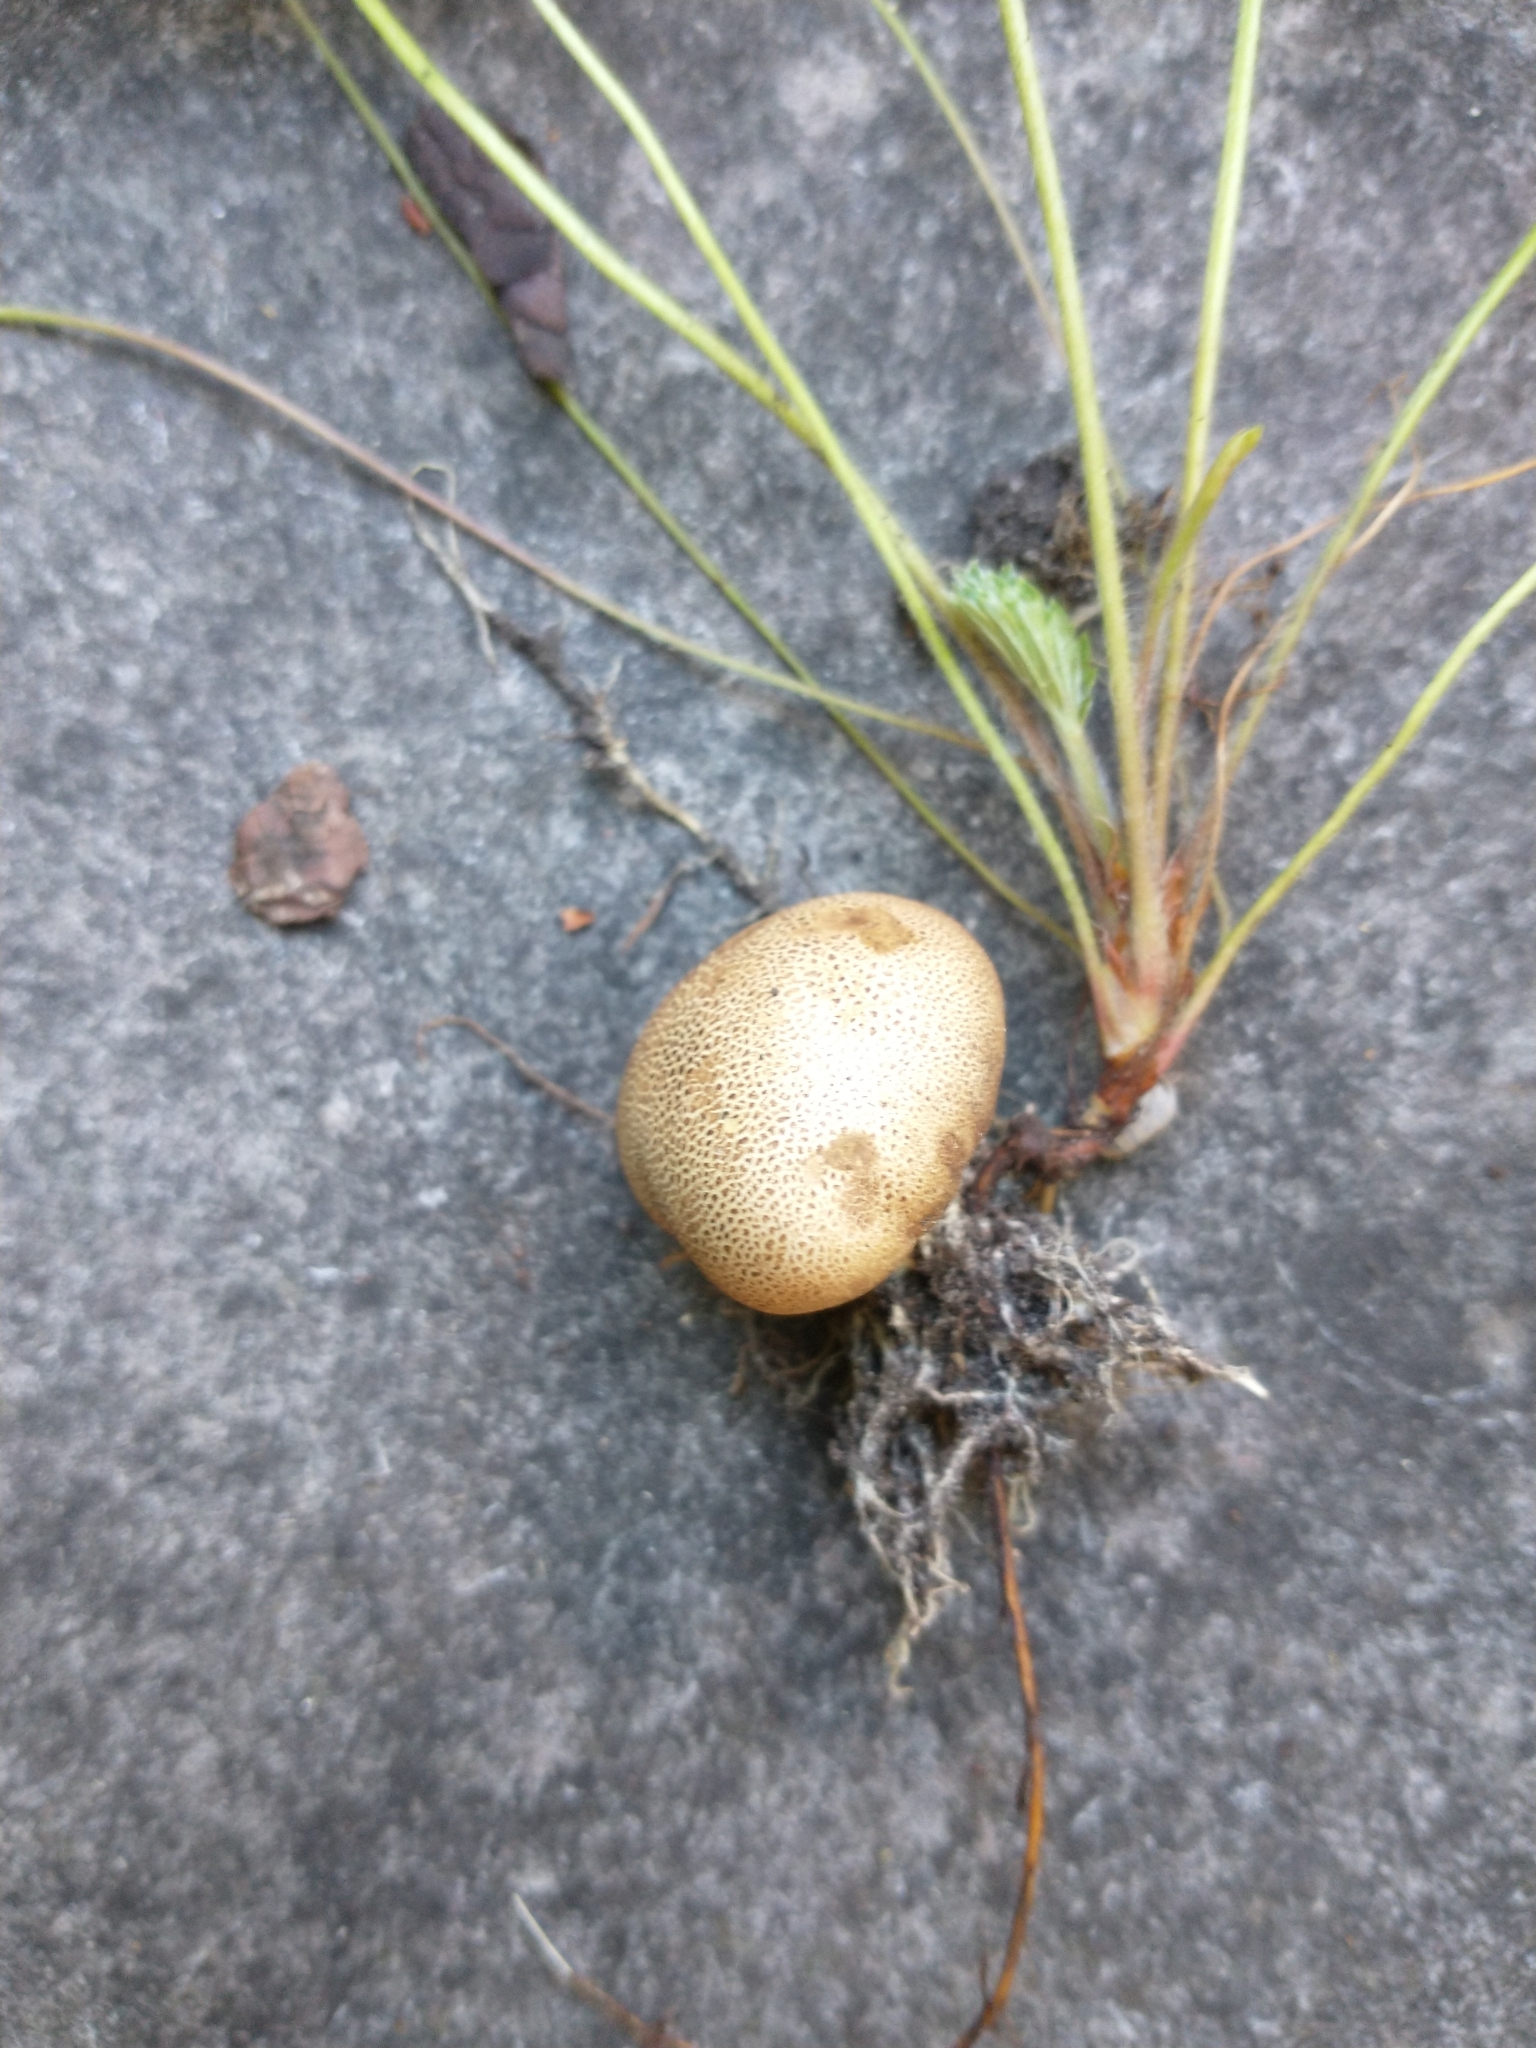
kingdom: Fungi
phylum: Basidiomycota
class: Agaricomycetes
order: Boletales
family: Sclerodermataceae
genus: Scleroderma
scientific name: Scleroderma citrinum
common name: Common earthball
